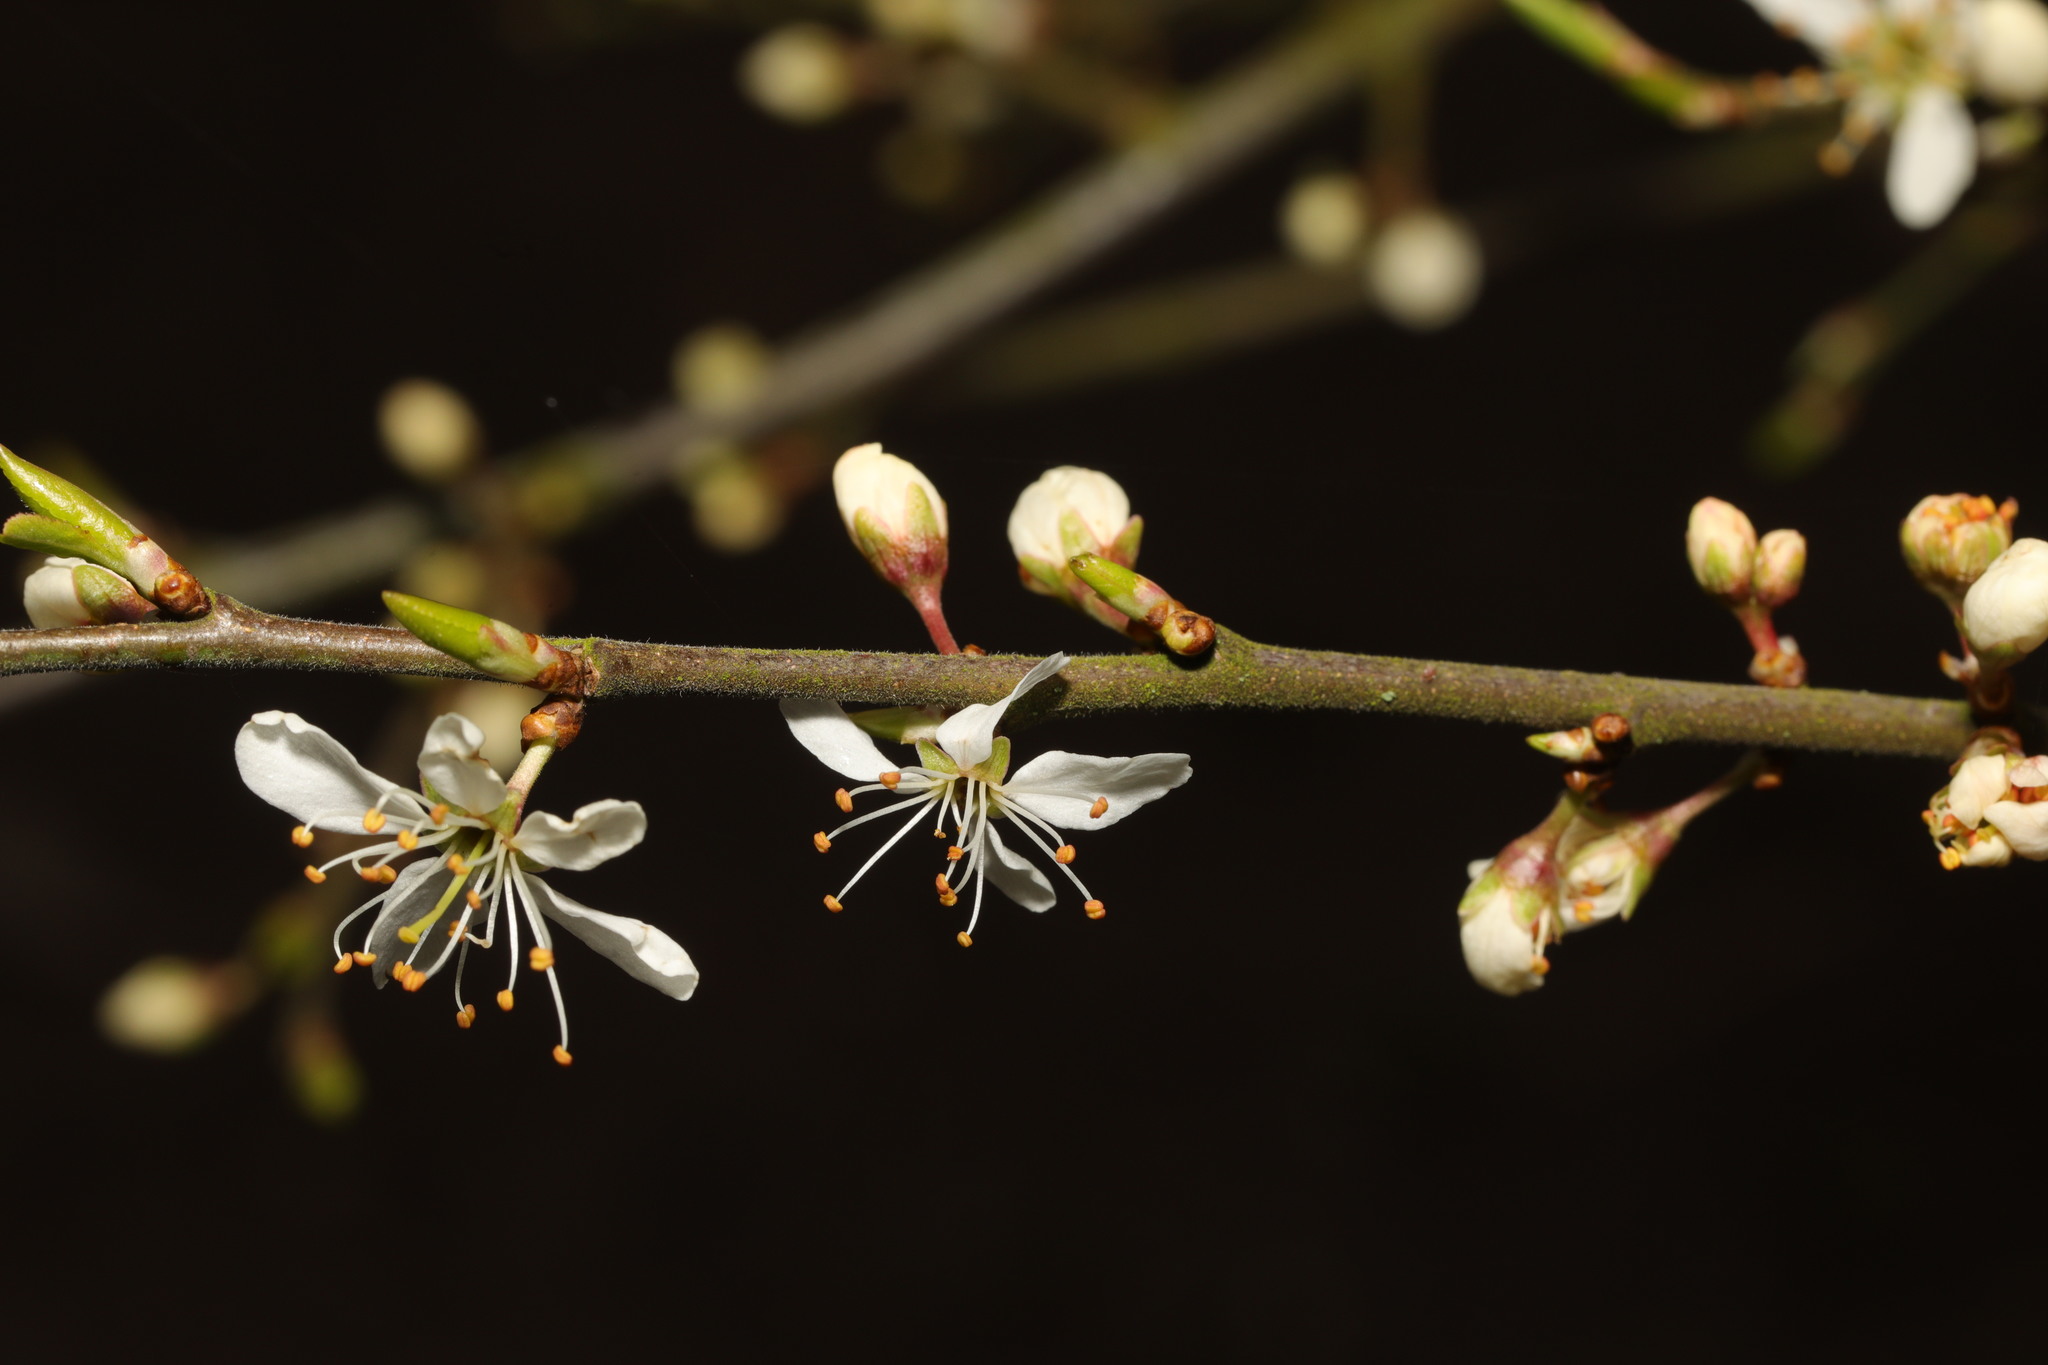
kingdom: Plantae
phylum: Tracheophyta
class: Magnoliopsida
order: Rosales
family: Rosaceae
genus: Prunus
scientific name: Prunus cerasifera
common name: Cherry plum
